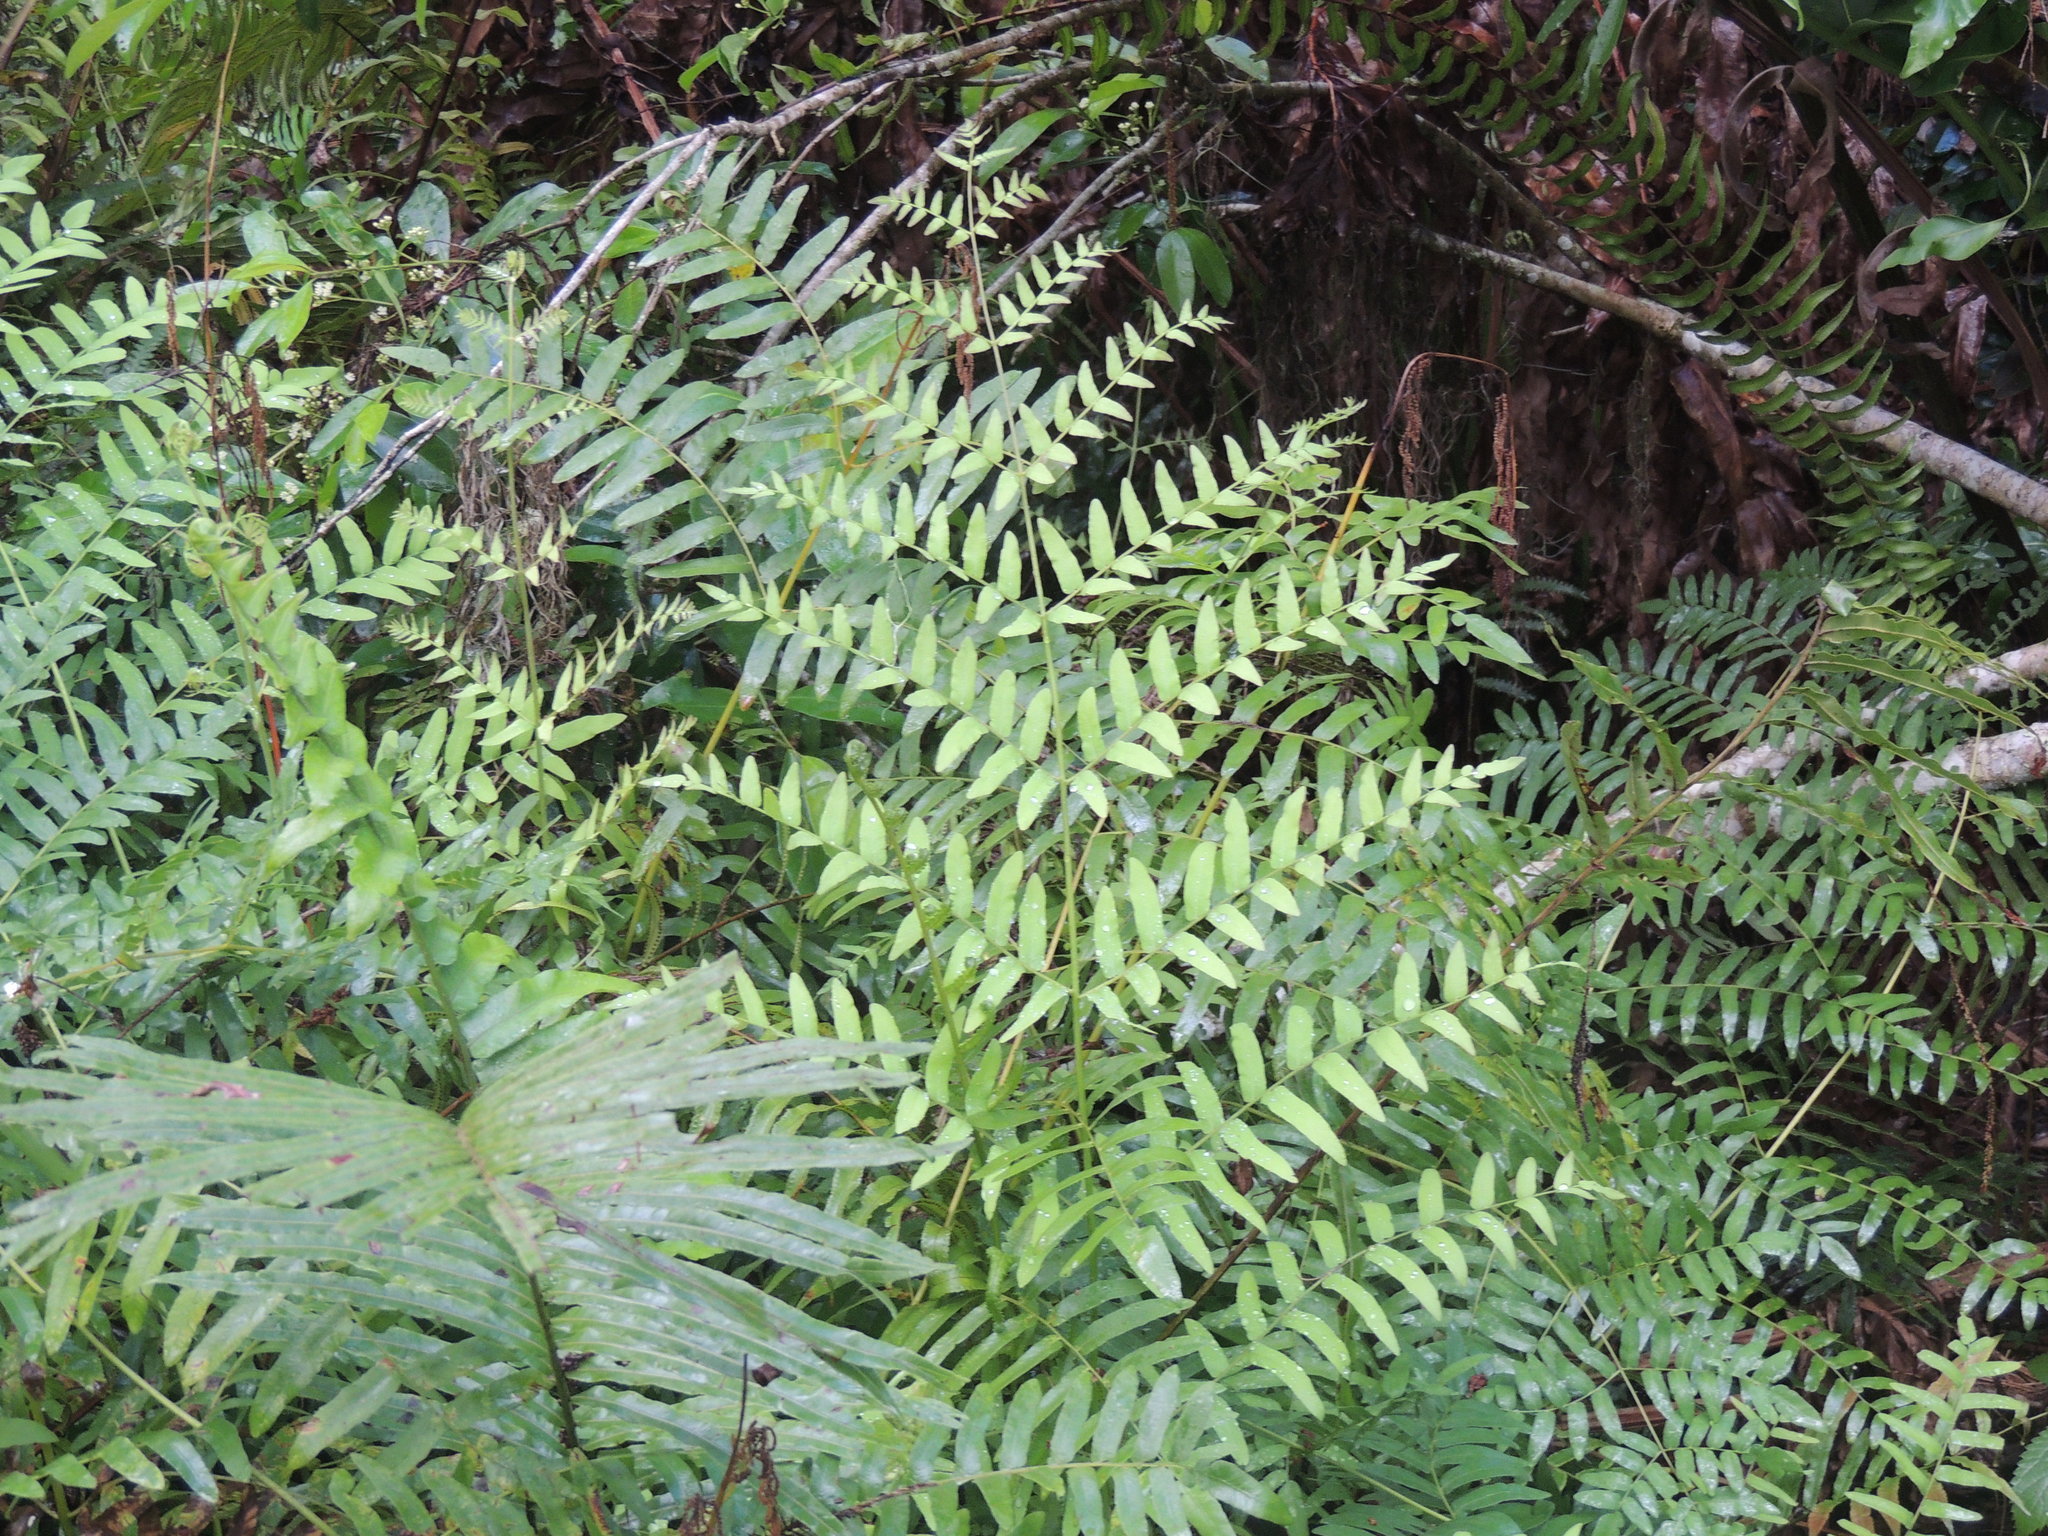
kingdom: Plantae
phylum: Tracheophyta
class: Polypodiopsida
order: Osmundales
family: Osmundaceae
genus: Osmunda
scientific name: Osmunda spectabilis
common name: American royal fern
